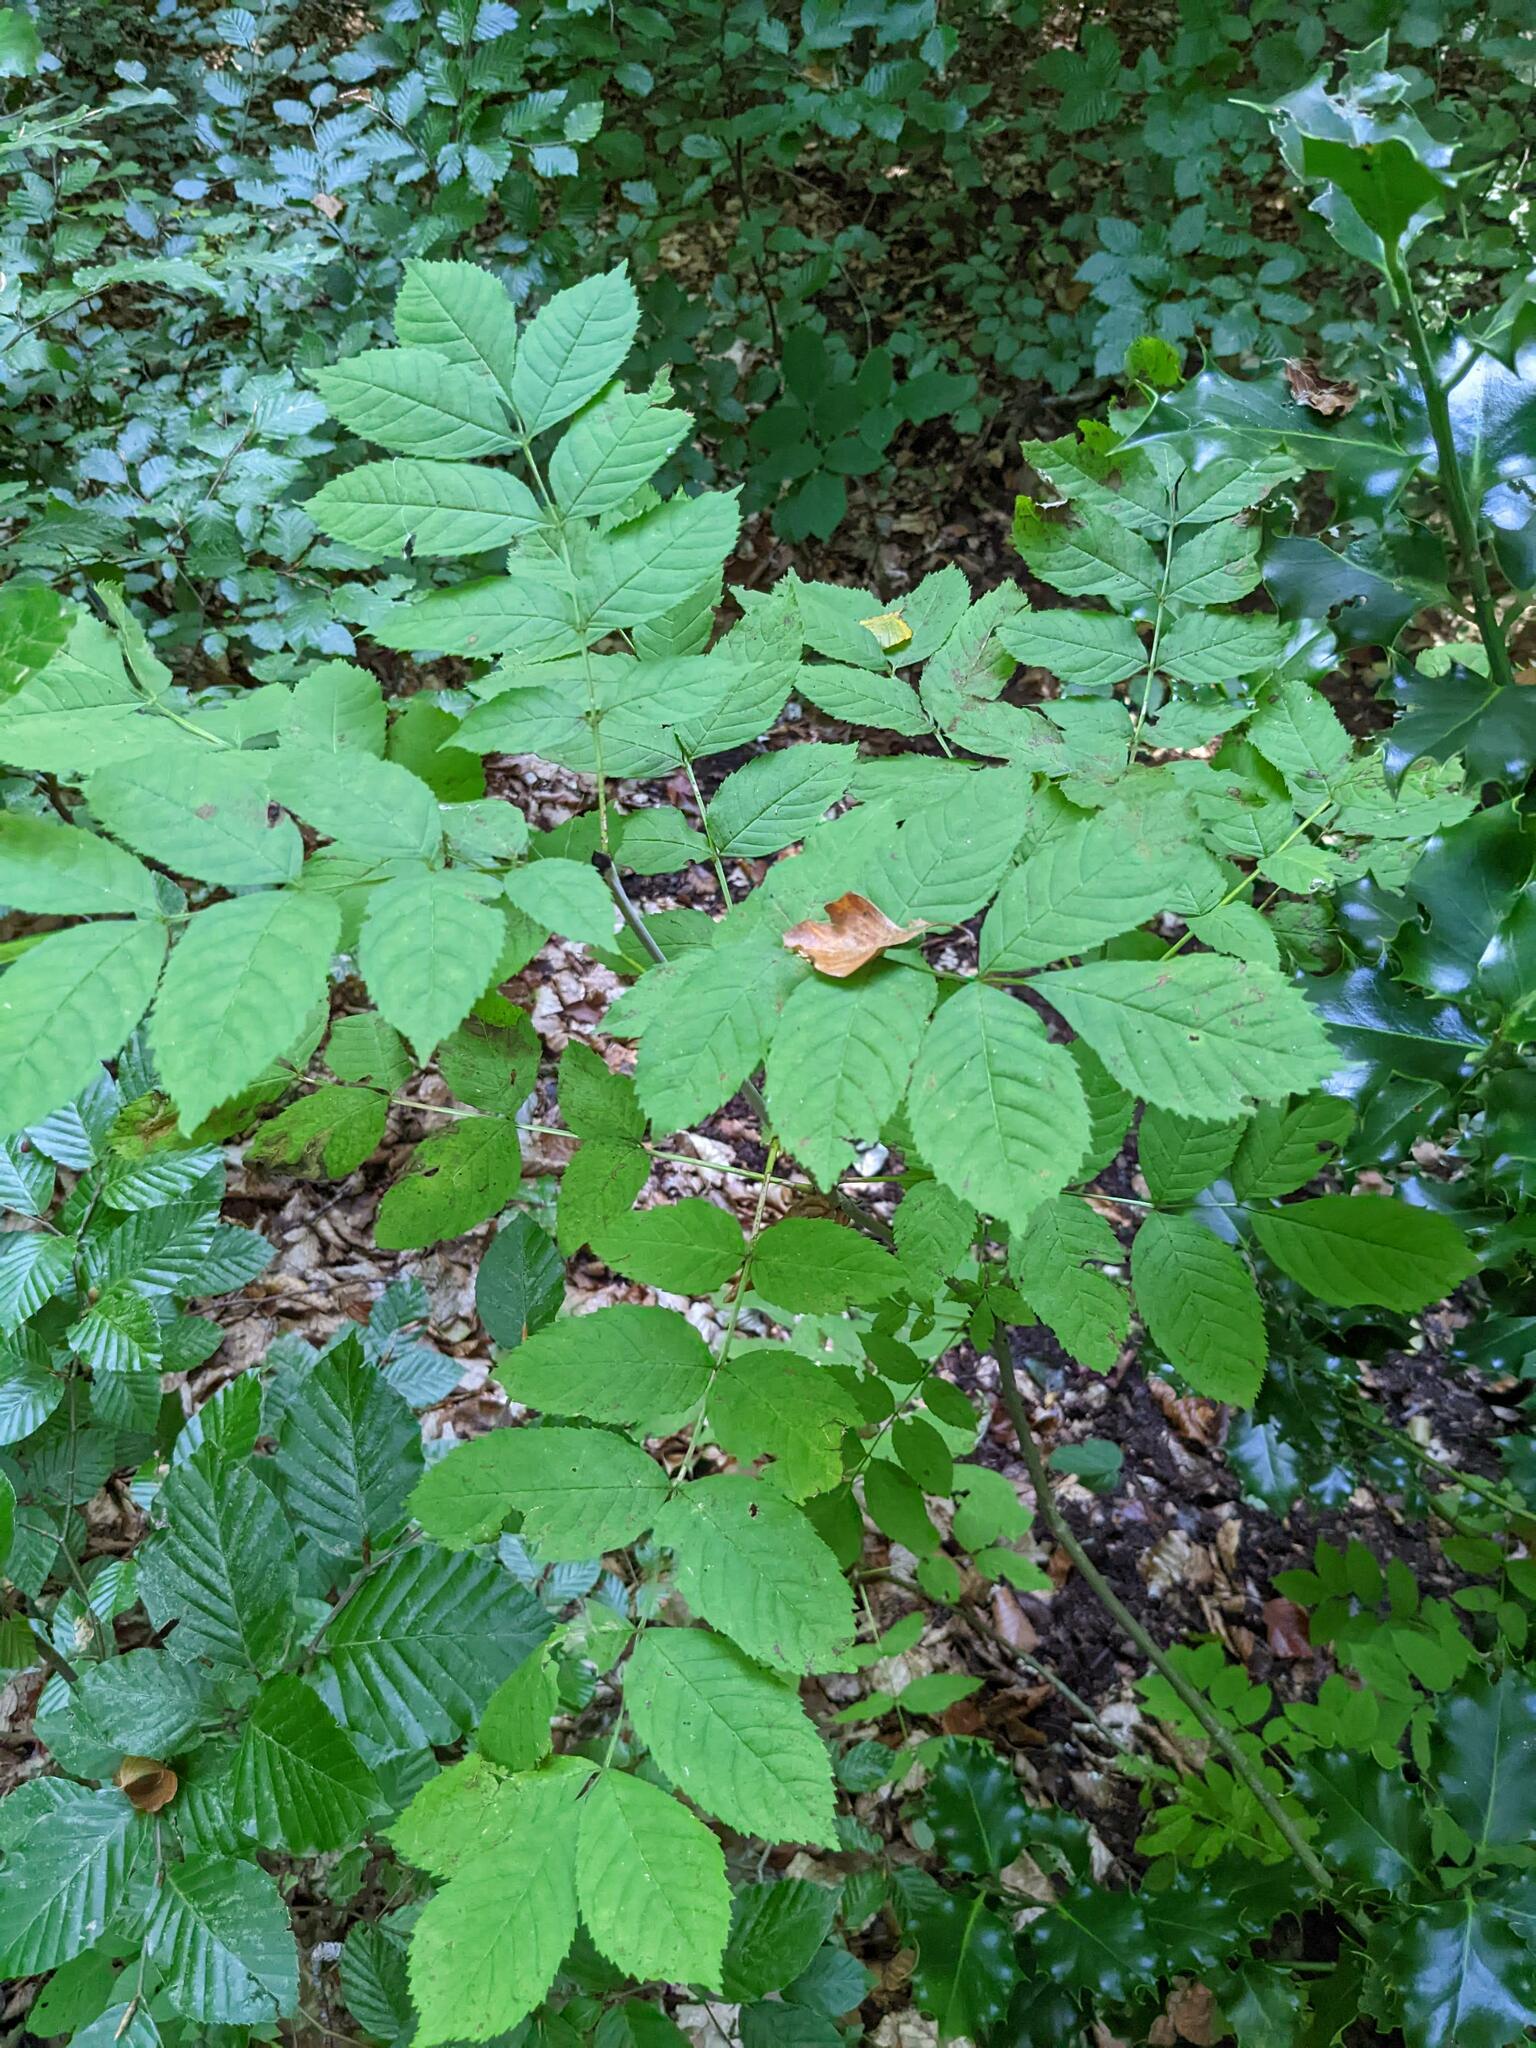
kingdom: Plantae
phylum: Tracheophyta
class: Magnoliopsida
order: Lamiales
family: Oleaceae
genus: Fraxinus
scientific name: Fraxinus excelsior
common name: European ash
